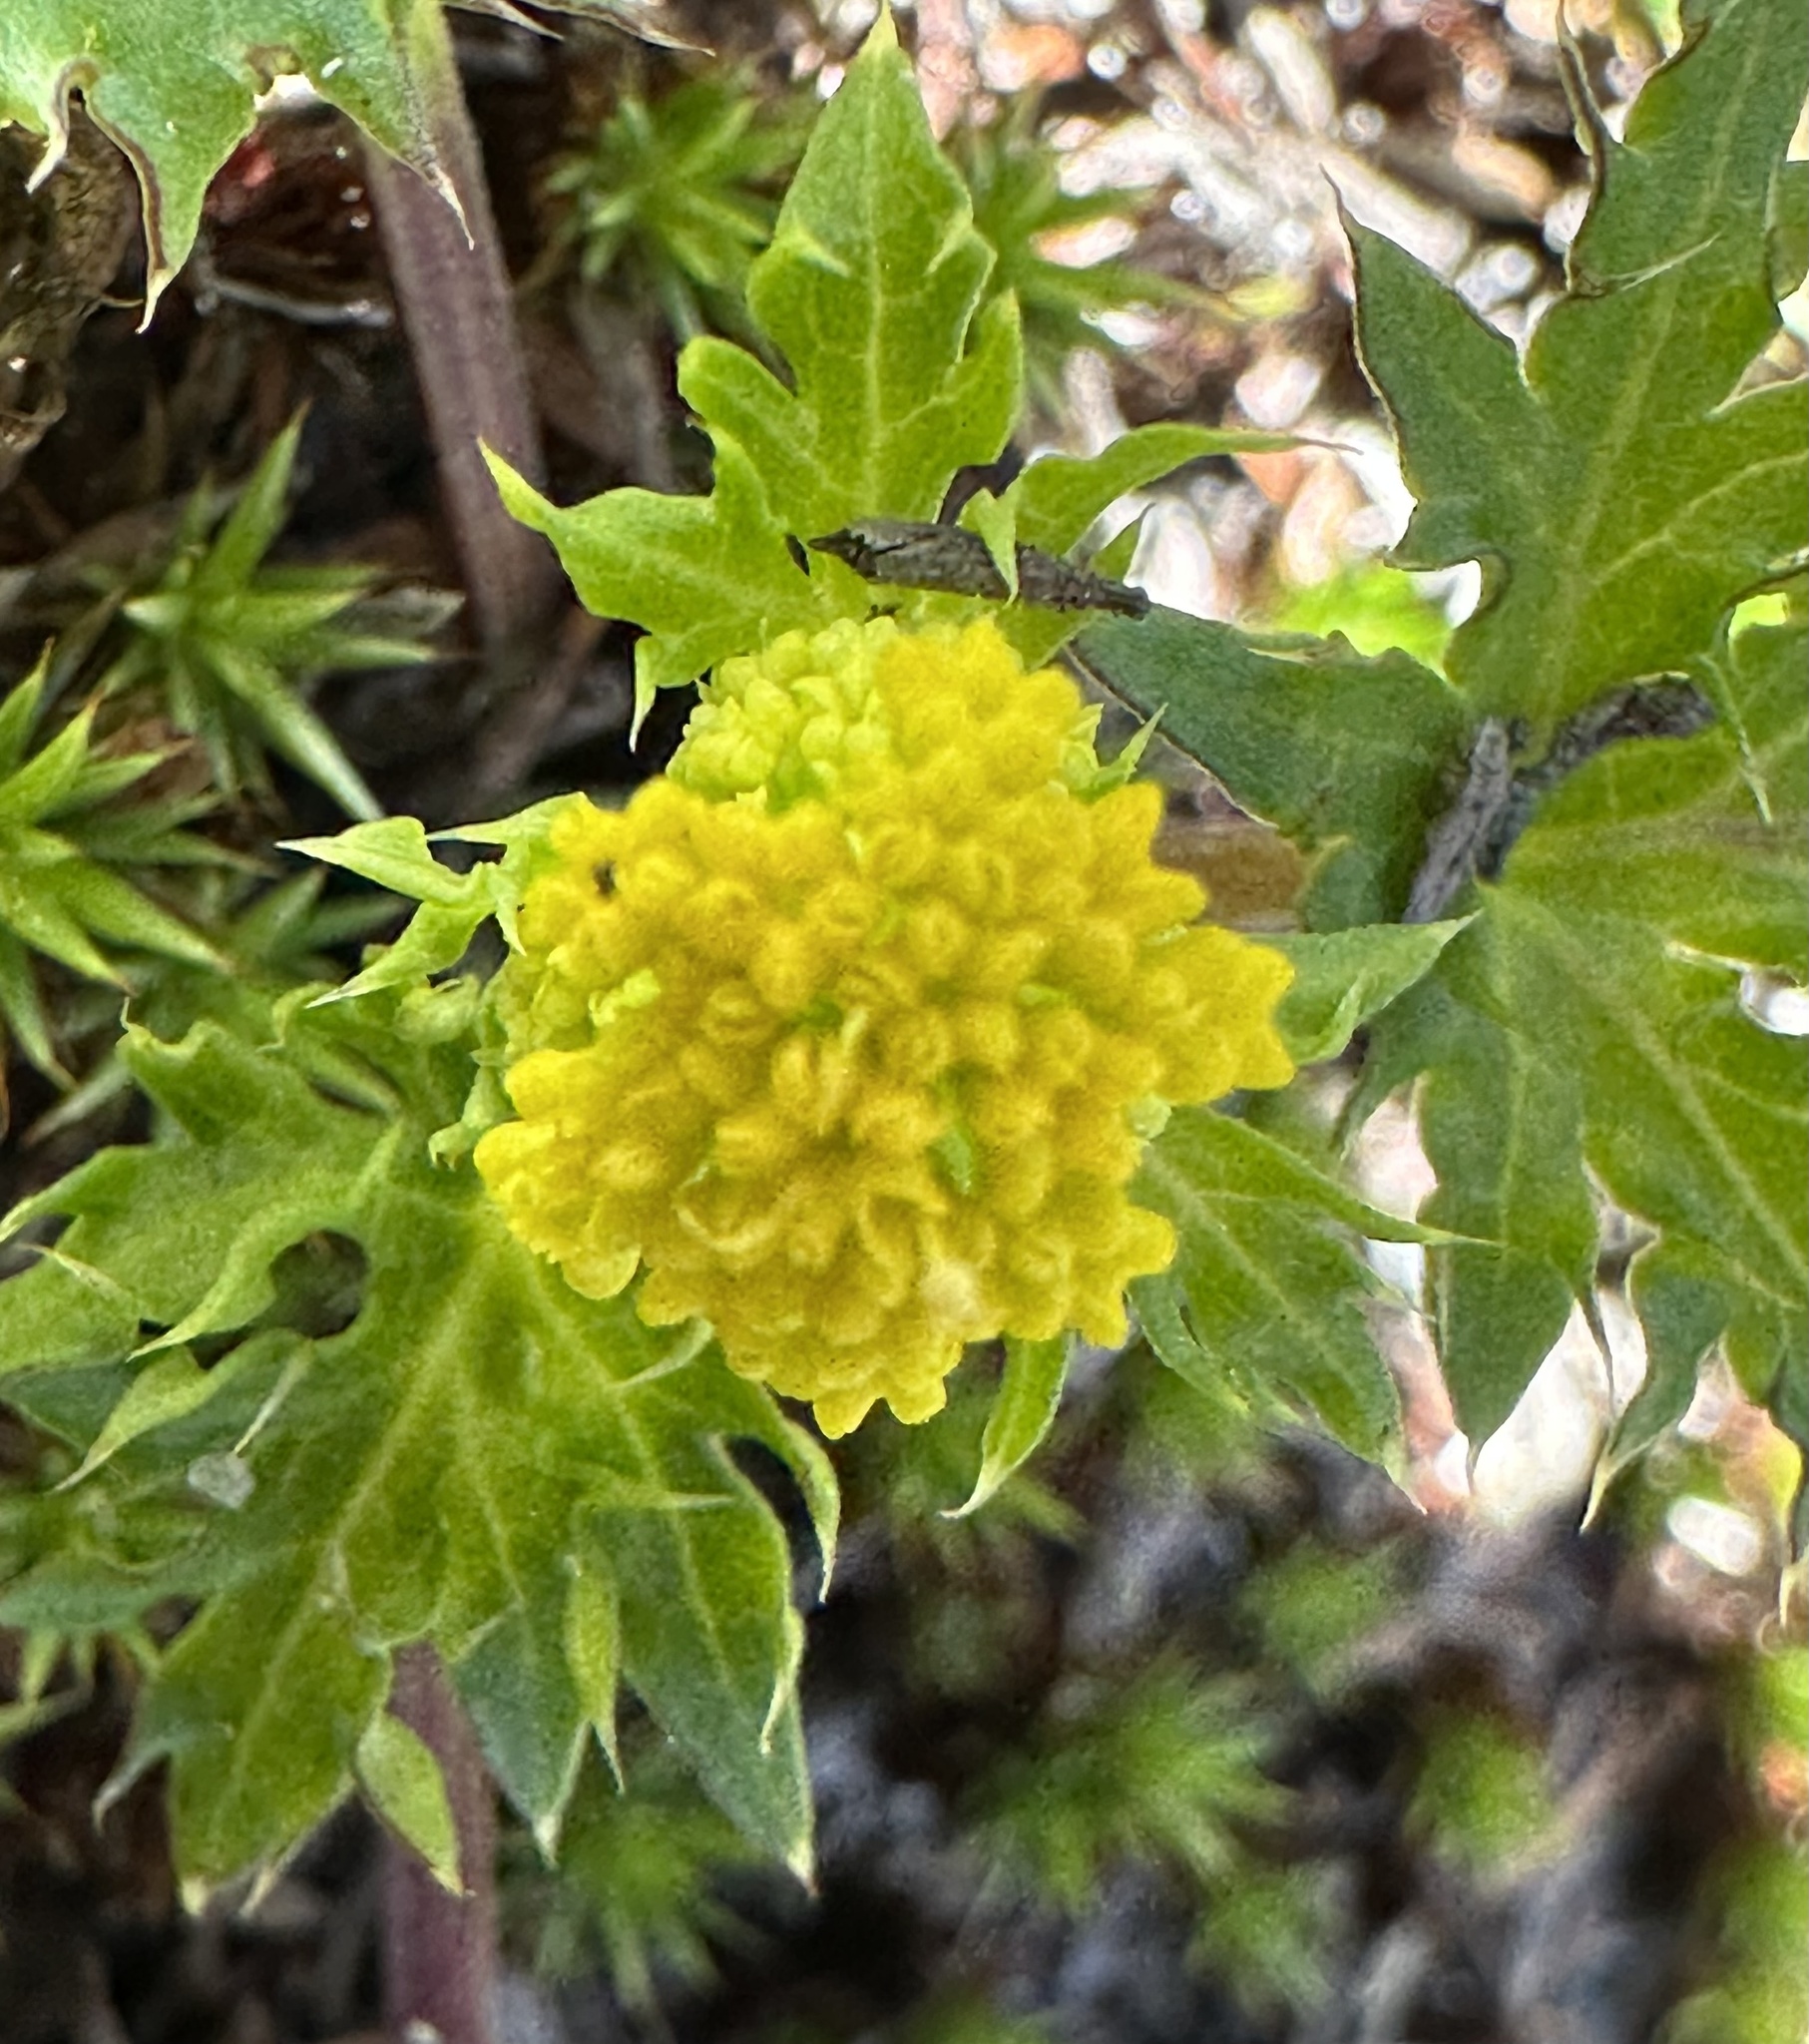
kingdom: Plantae
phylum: Tracheophyta
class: Magnoliopsida
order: Apiales
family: Apiaceae
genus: Sanicula
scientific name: Sanicula laciniata
